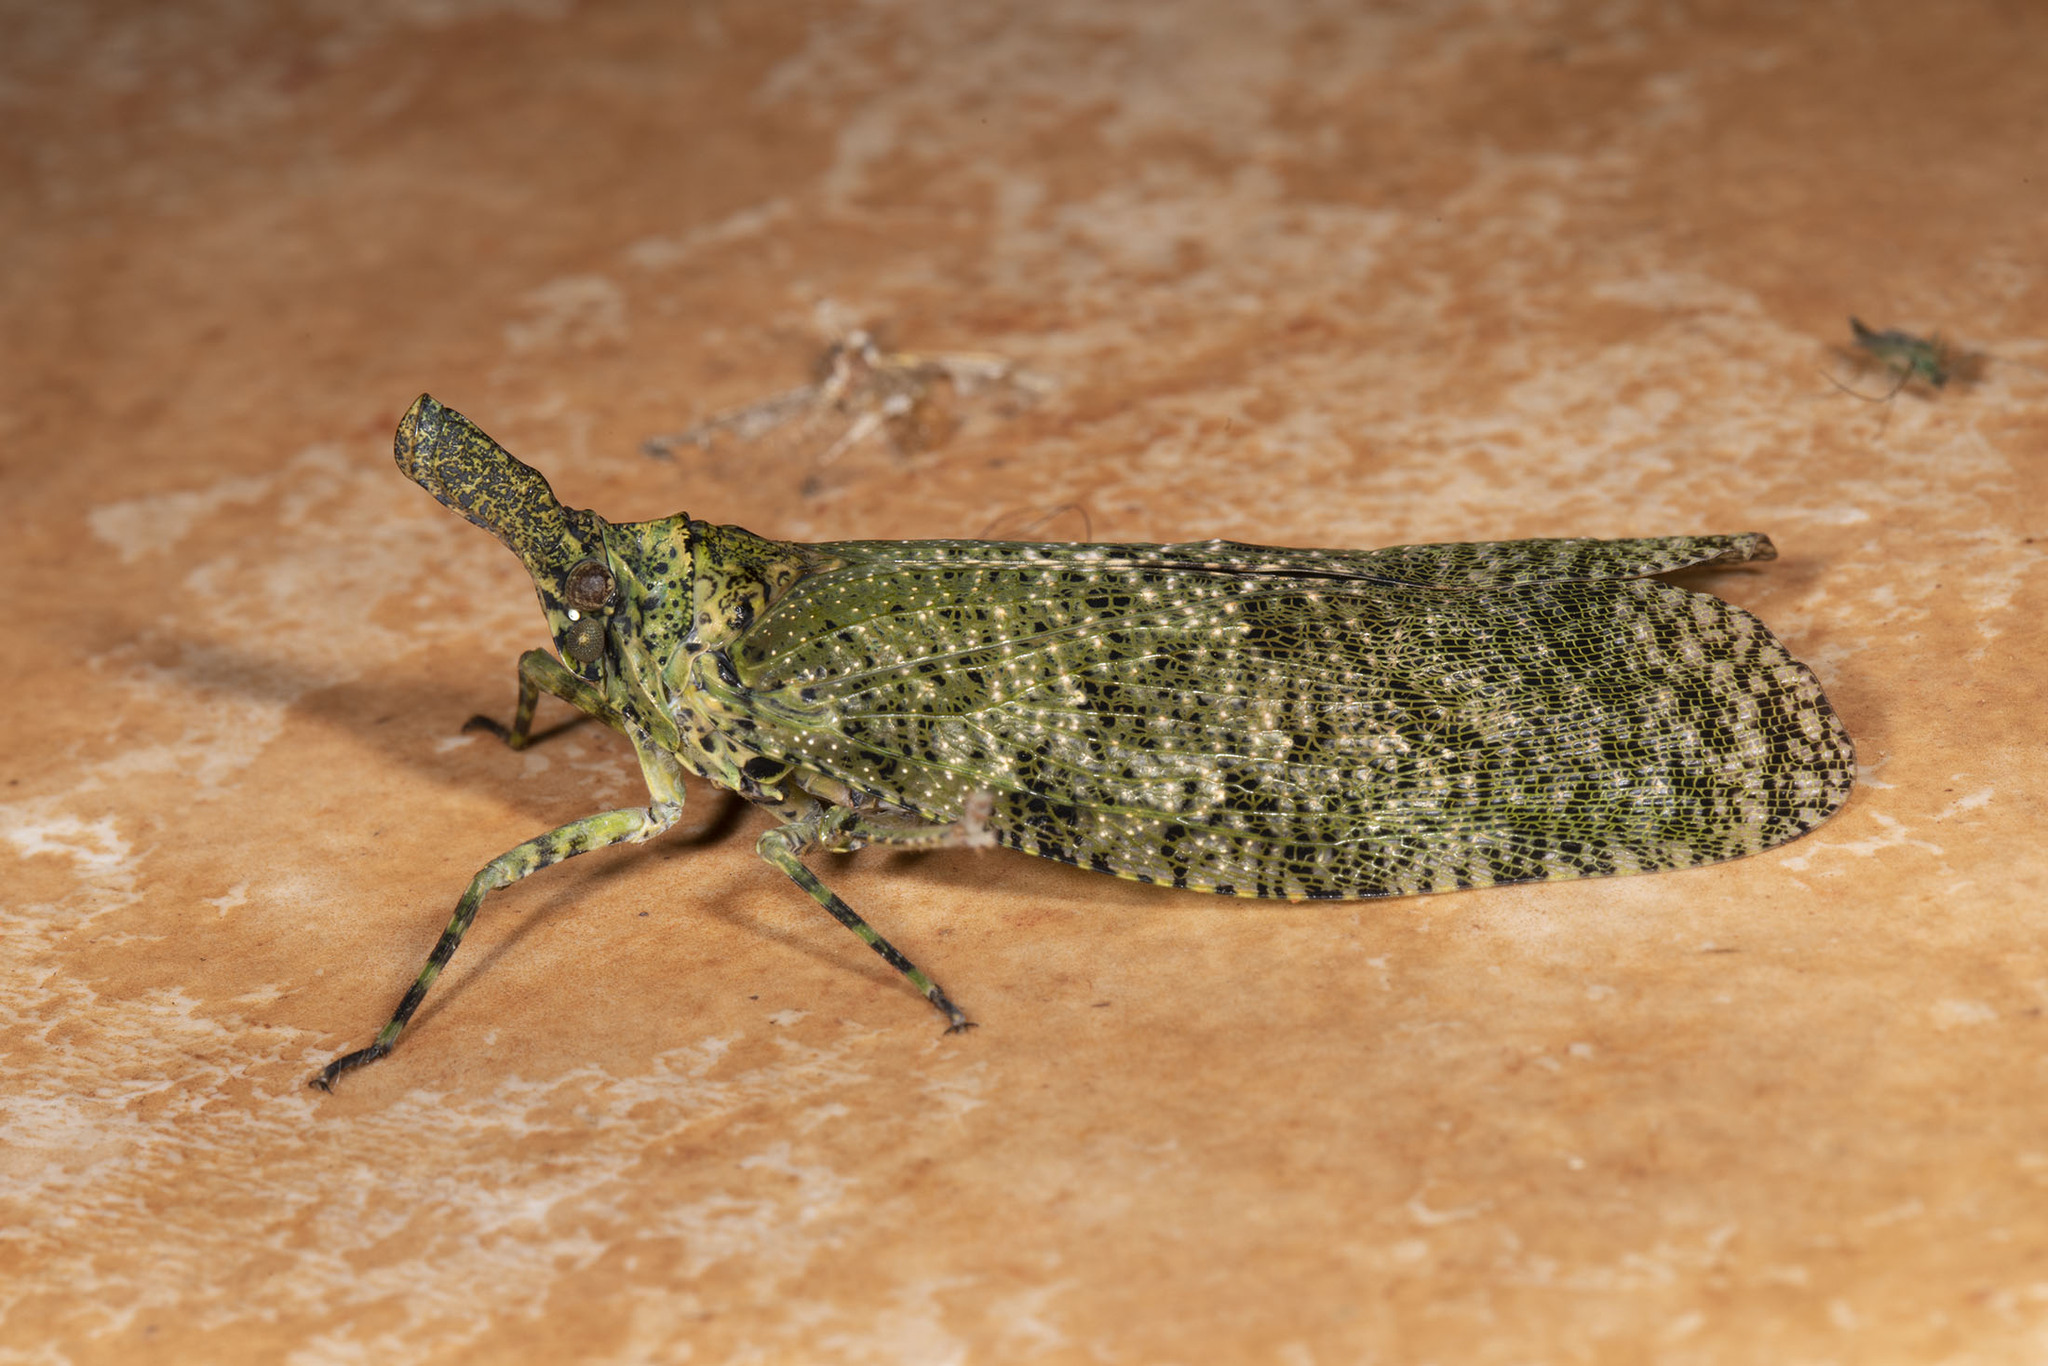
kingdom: Animalia
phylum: Arthropoda
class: Insecta
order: Hemiptera
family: Fulgoridae
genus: Diareusa
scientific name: Diareusa annularis
